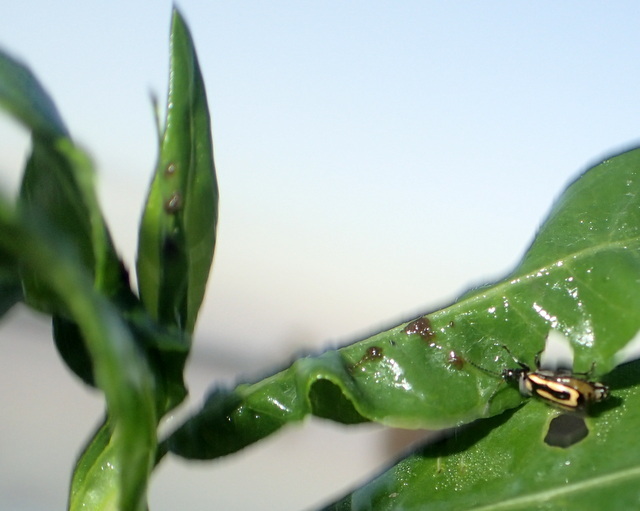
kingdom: Animalia
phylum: Arthropoda
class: Insecta
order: Coleoptera
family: Chrysomelidae
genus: Agasicles
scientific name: Agasicles hygrophila
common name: Alligatorweed flea beetle
